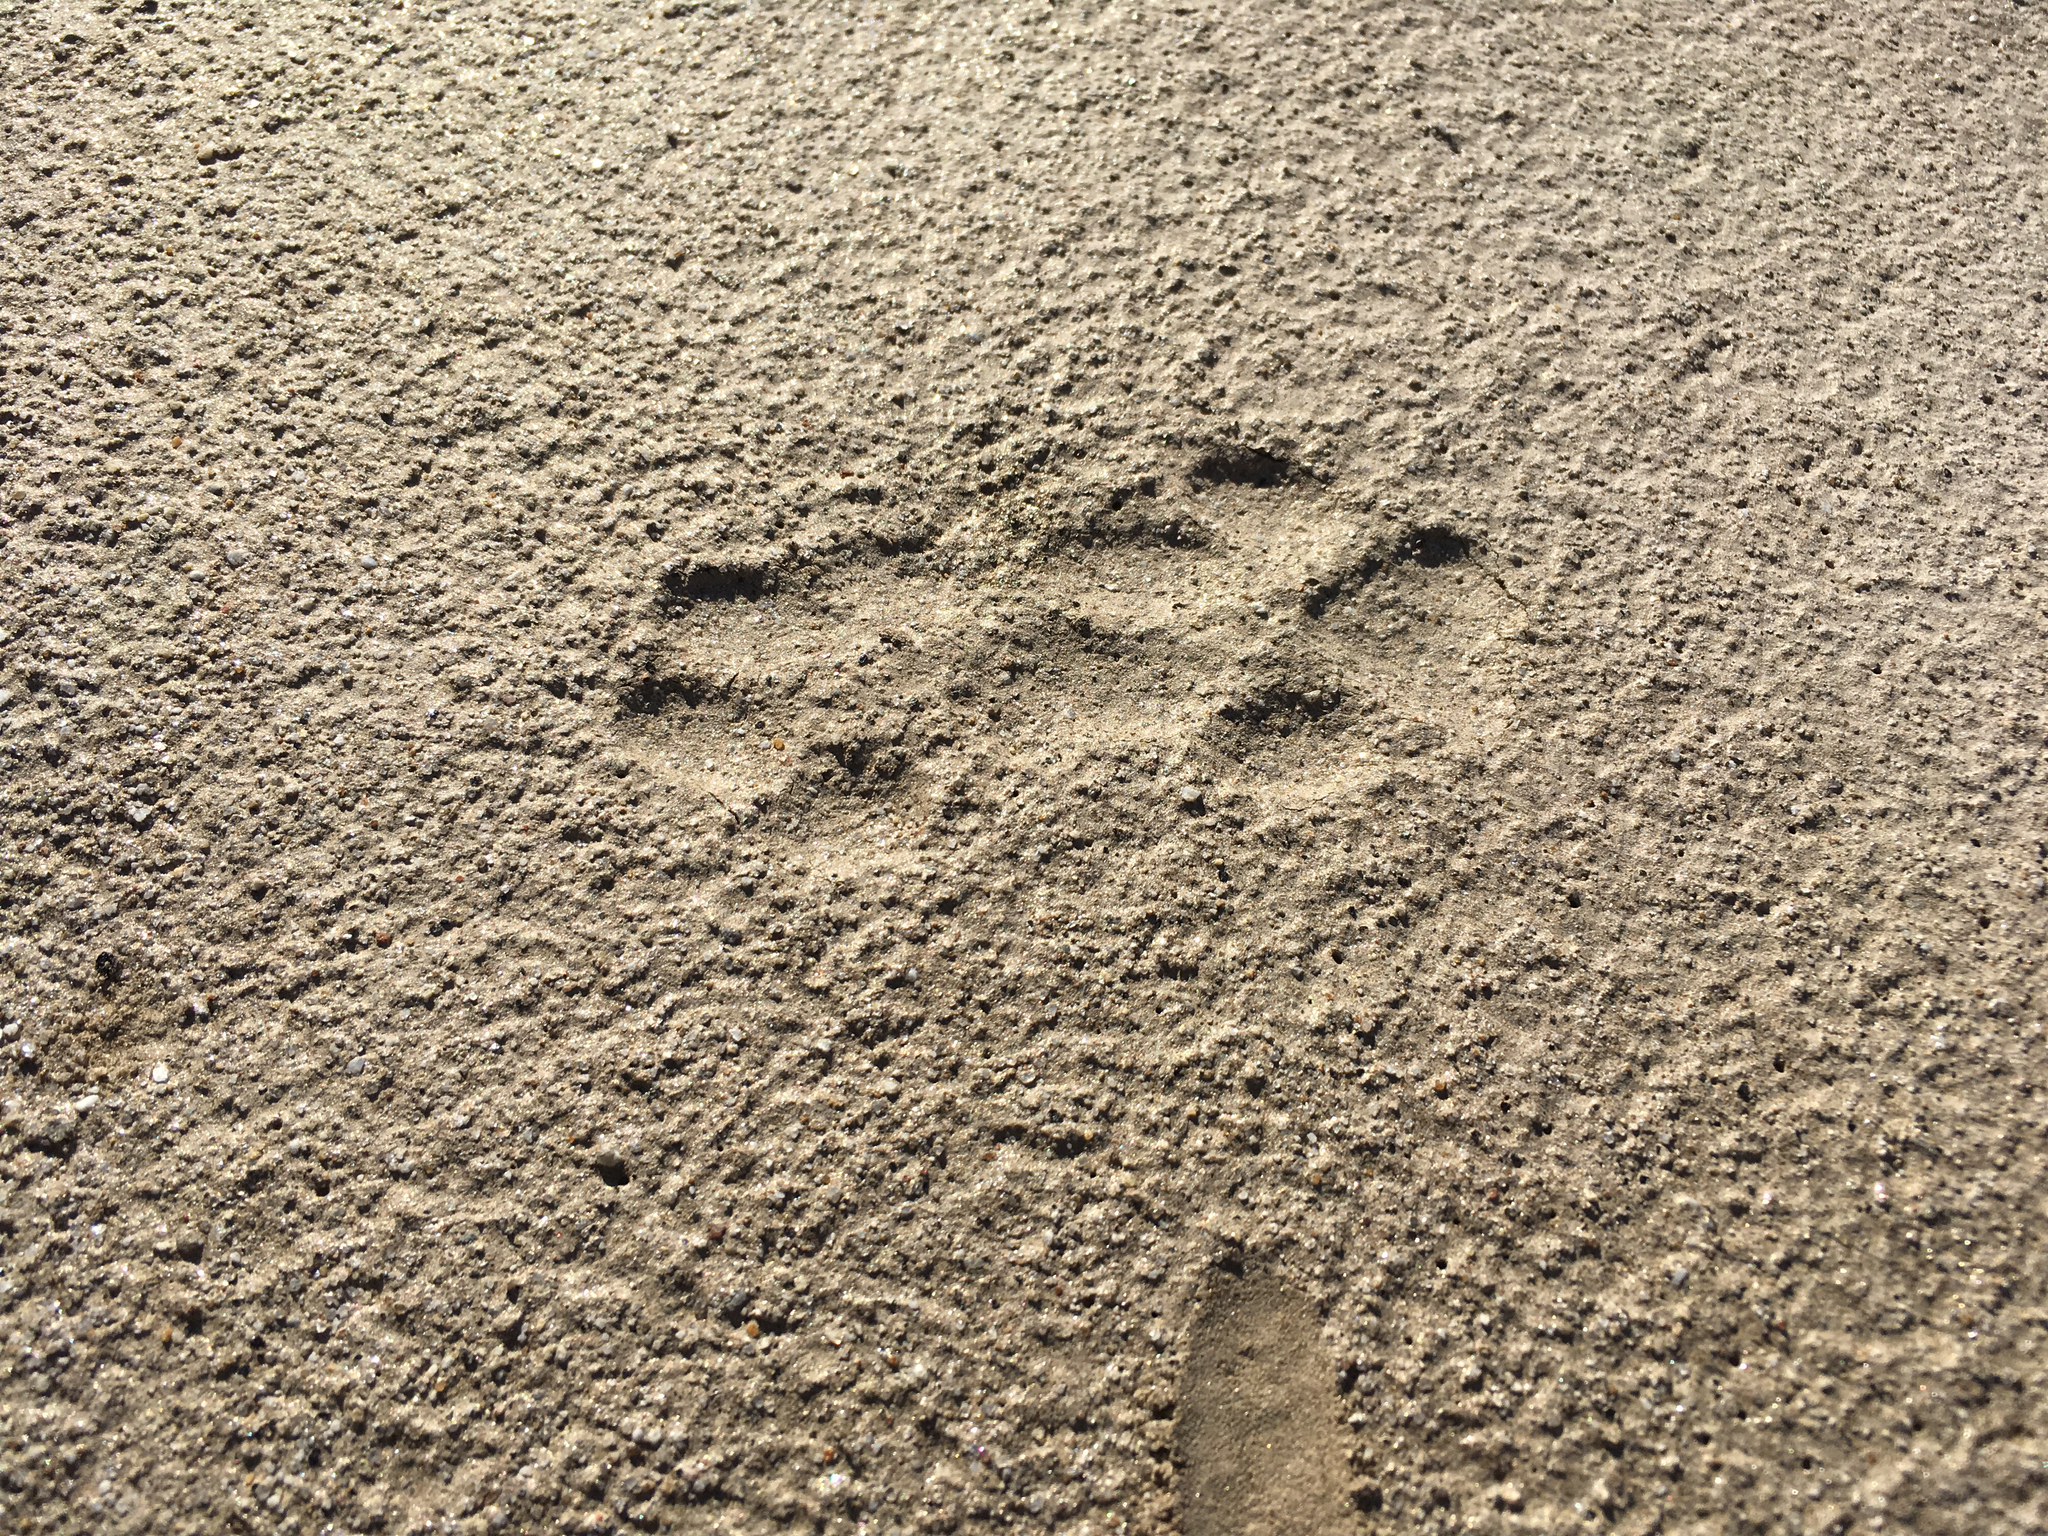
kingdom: Animalia
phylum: Chordata
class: Mammalia
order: Carnivora
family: Canidae
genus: Canis
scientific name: Canis latrans
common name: Coyote
